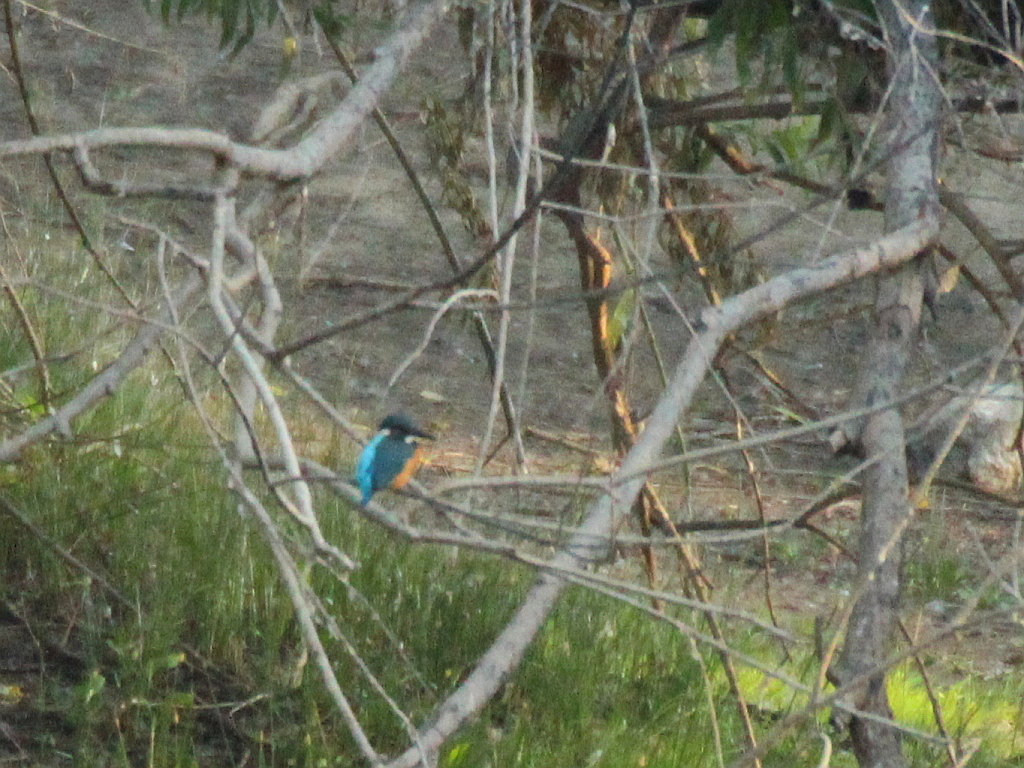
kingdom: Animalia
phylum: Chordata
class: Aves
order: Coraciiformes
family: Alcedinidae
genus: Alcedo
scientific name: Alcedo atthis
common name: Common kingfisher
